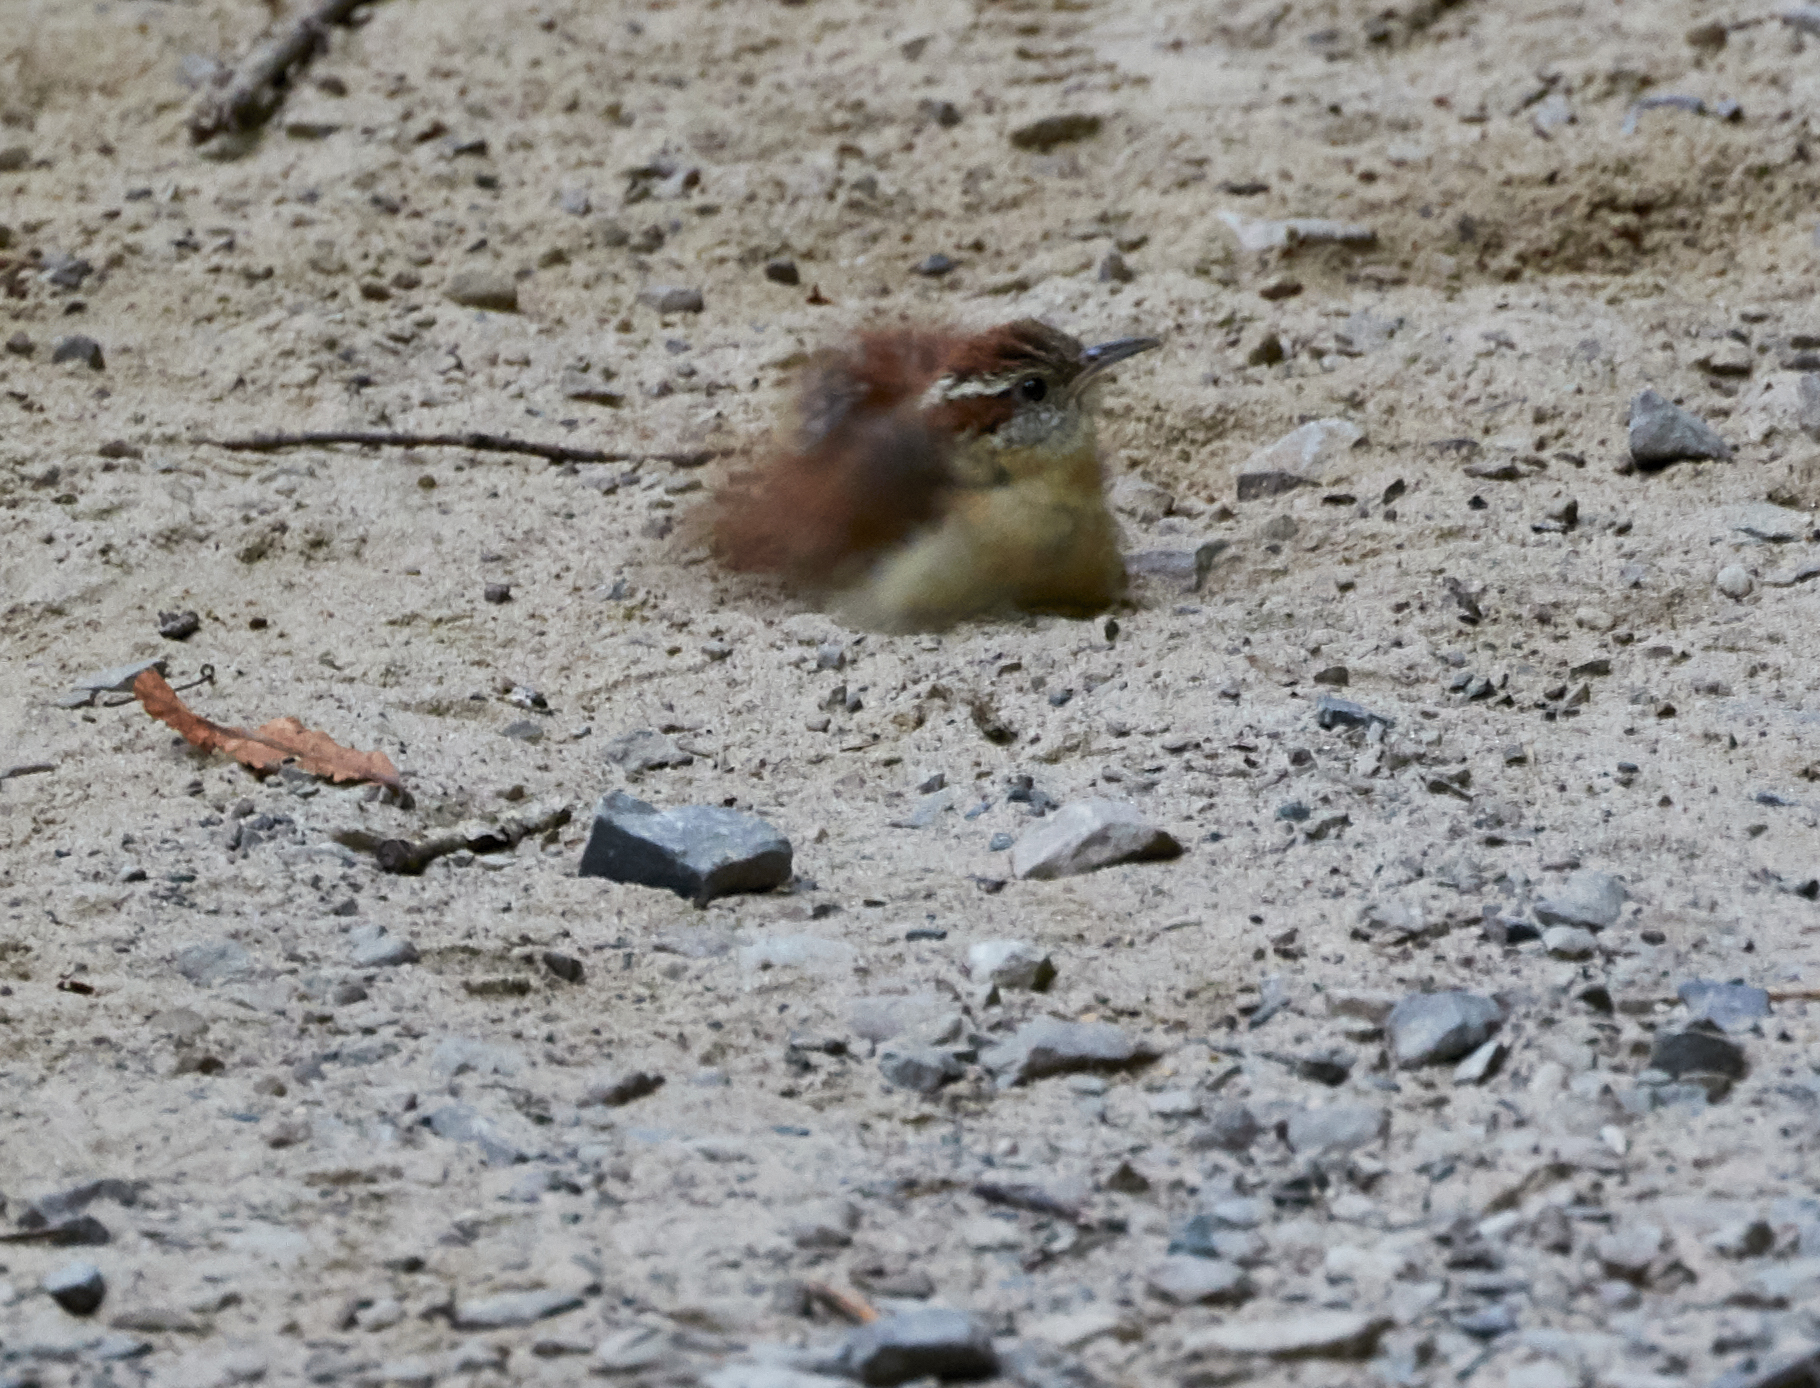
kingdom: Animalia
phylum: Chordata
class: Aves
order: Passeriformes
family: Troglodytidae
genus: Thryothorus
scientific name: Thryothorus ludovicianus
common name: Carolina wren
